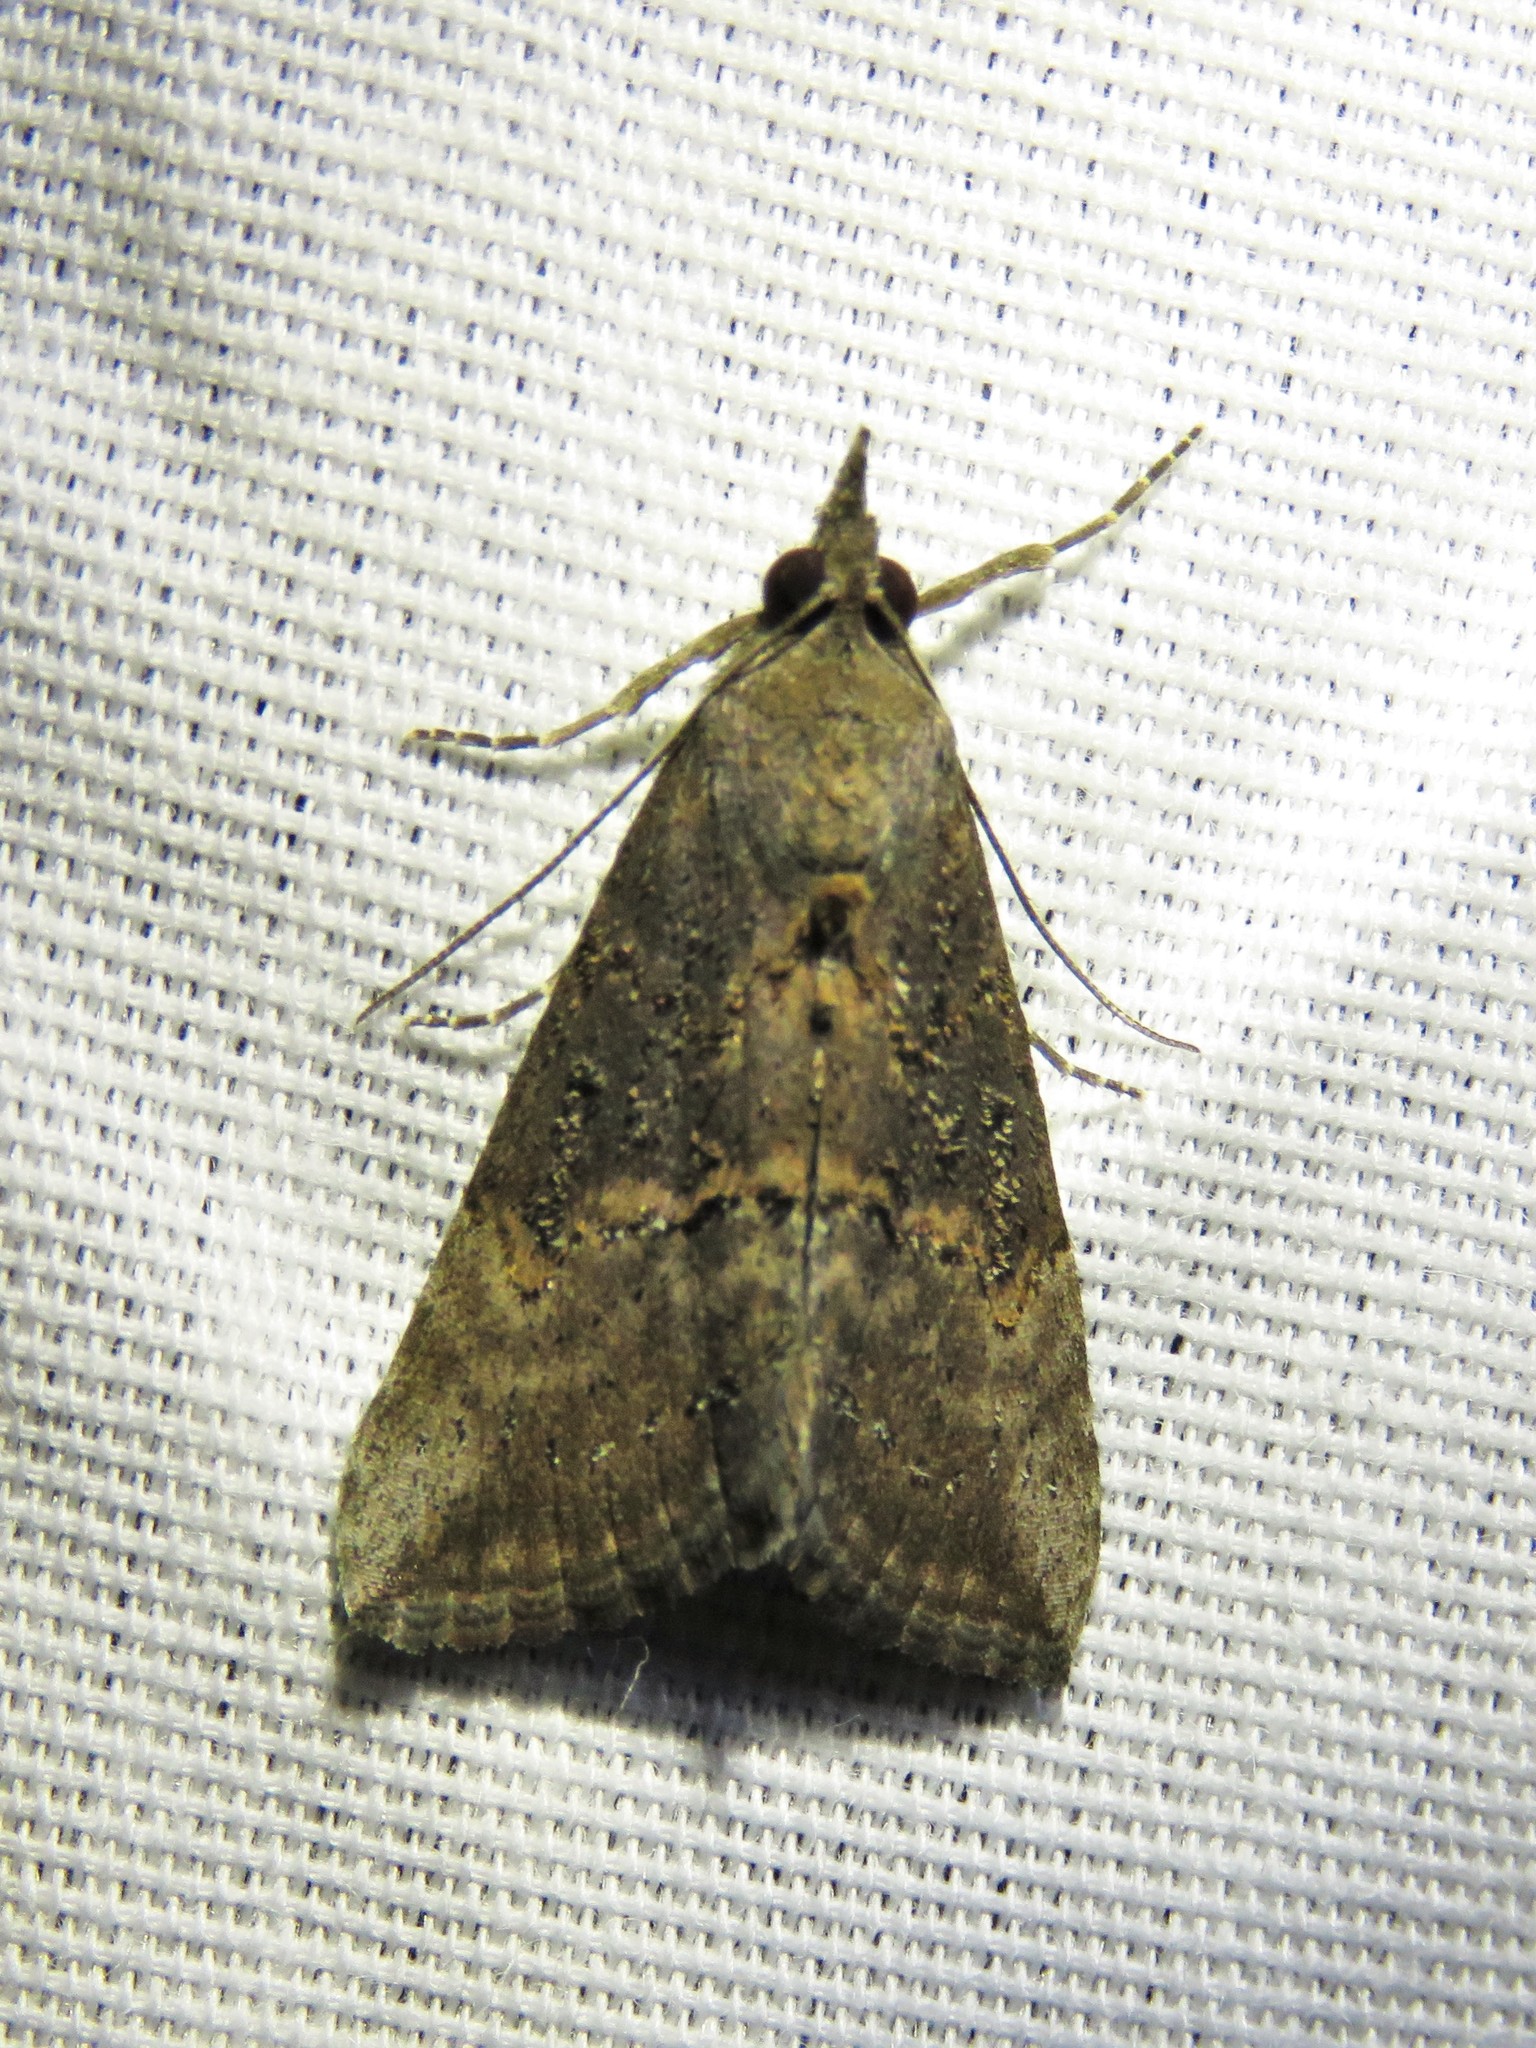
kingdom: Animalia
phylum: Arthropoda
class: Insecta
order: Lepidoptera
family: Erebidae
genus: Hypena
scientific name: Hypena scabra
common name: Green cloverworm
